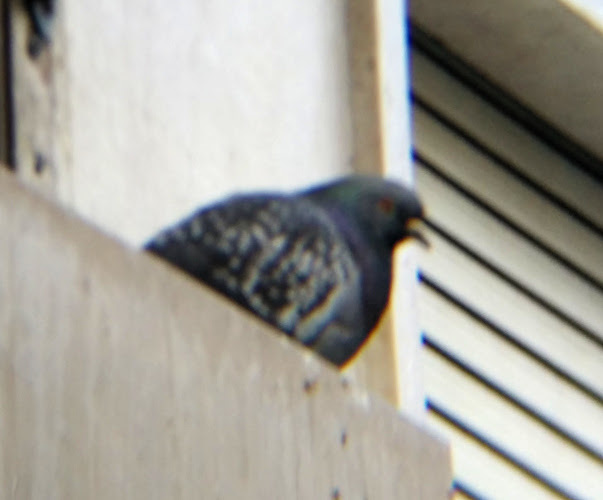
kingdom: Animalia
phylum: Chordata
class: Aves
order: Columbiformes
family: Columbidae
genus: Columba
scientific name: Columba livia
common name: Rock pigeon
